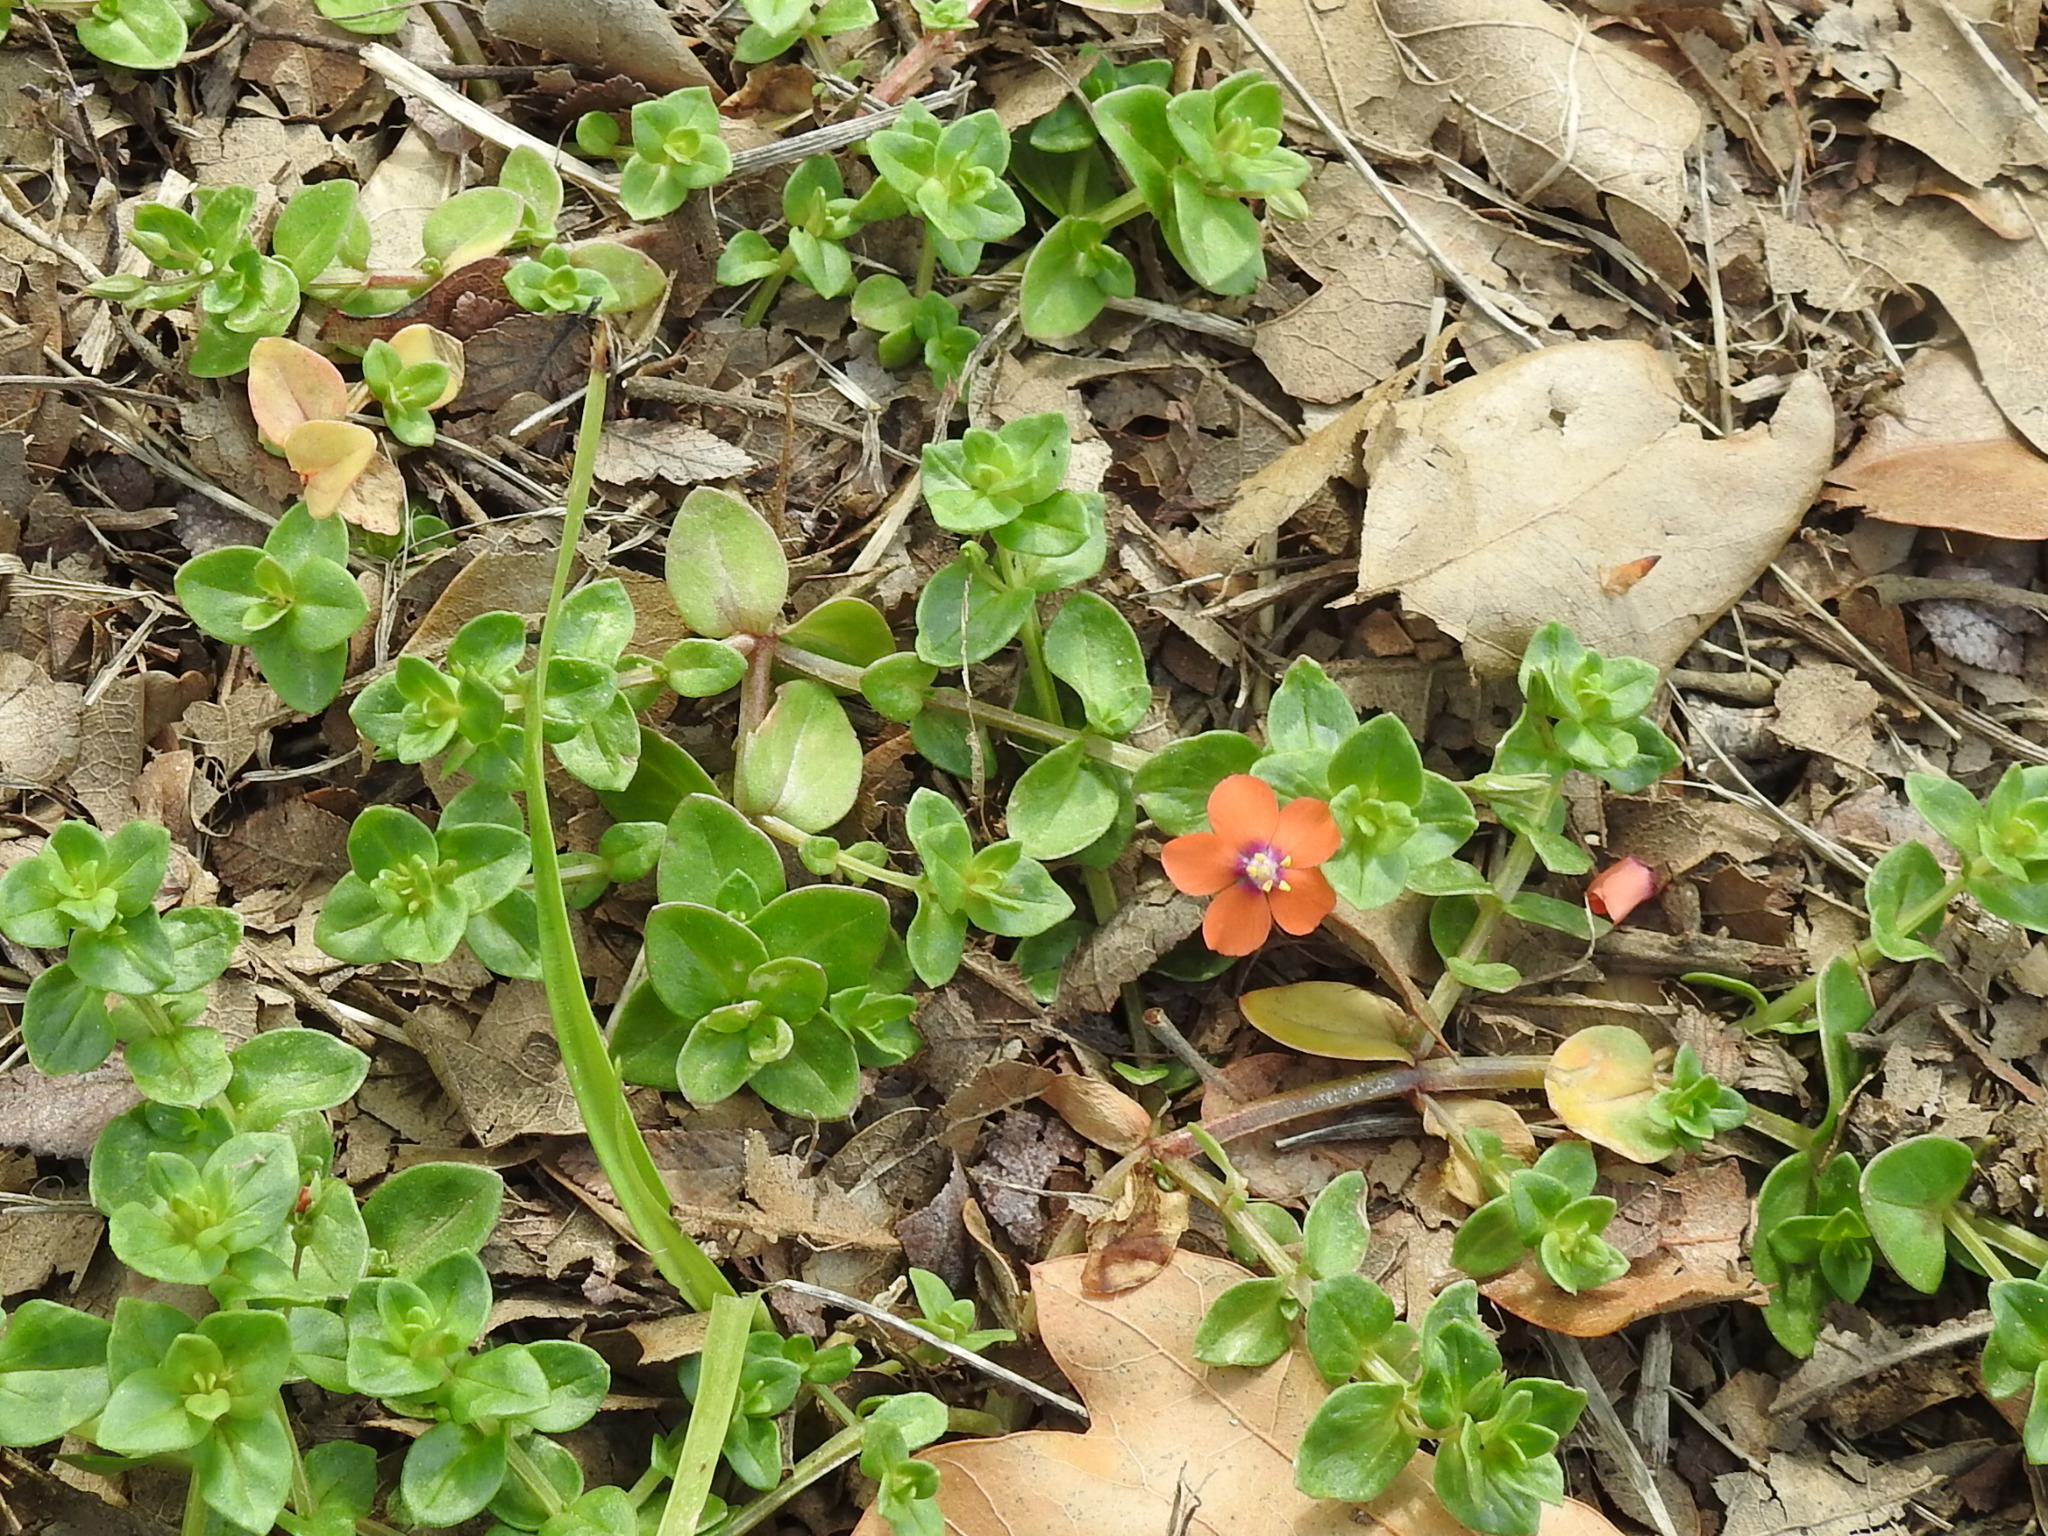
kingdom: Plantae
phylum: Tracheophyta
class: Magnoliopsida
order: Ericales
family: Primulaceae
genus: Lysimachia
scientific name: Lysimachia arvensis
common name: Scarlet pimpernel
